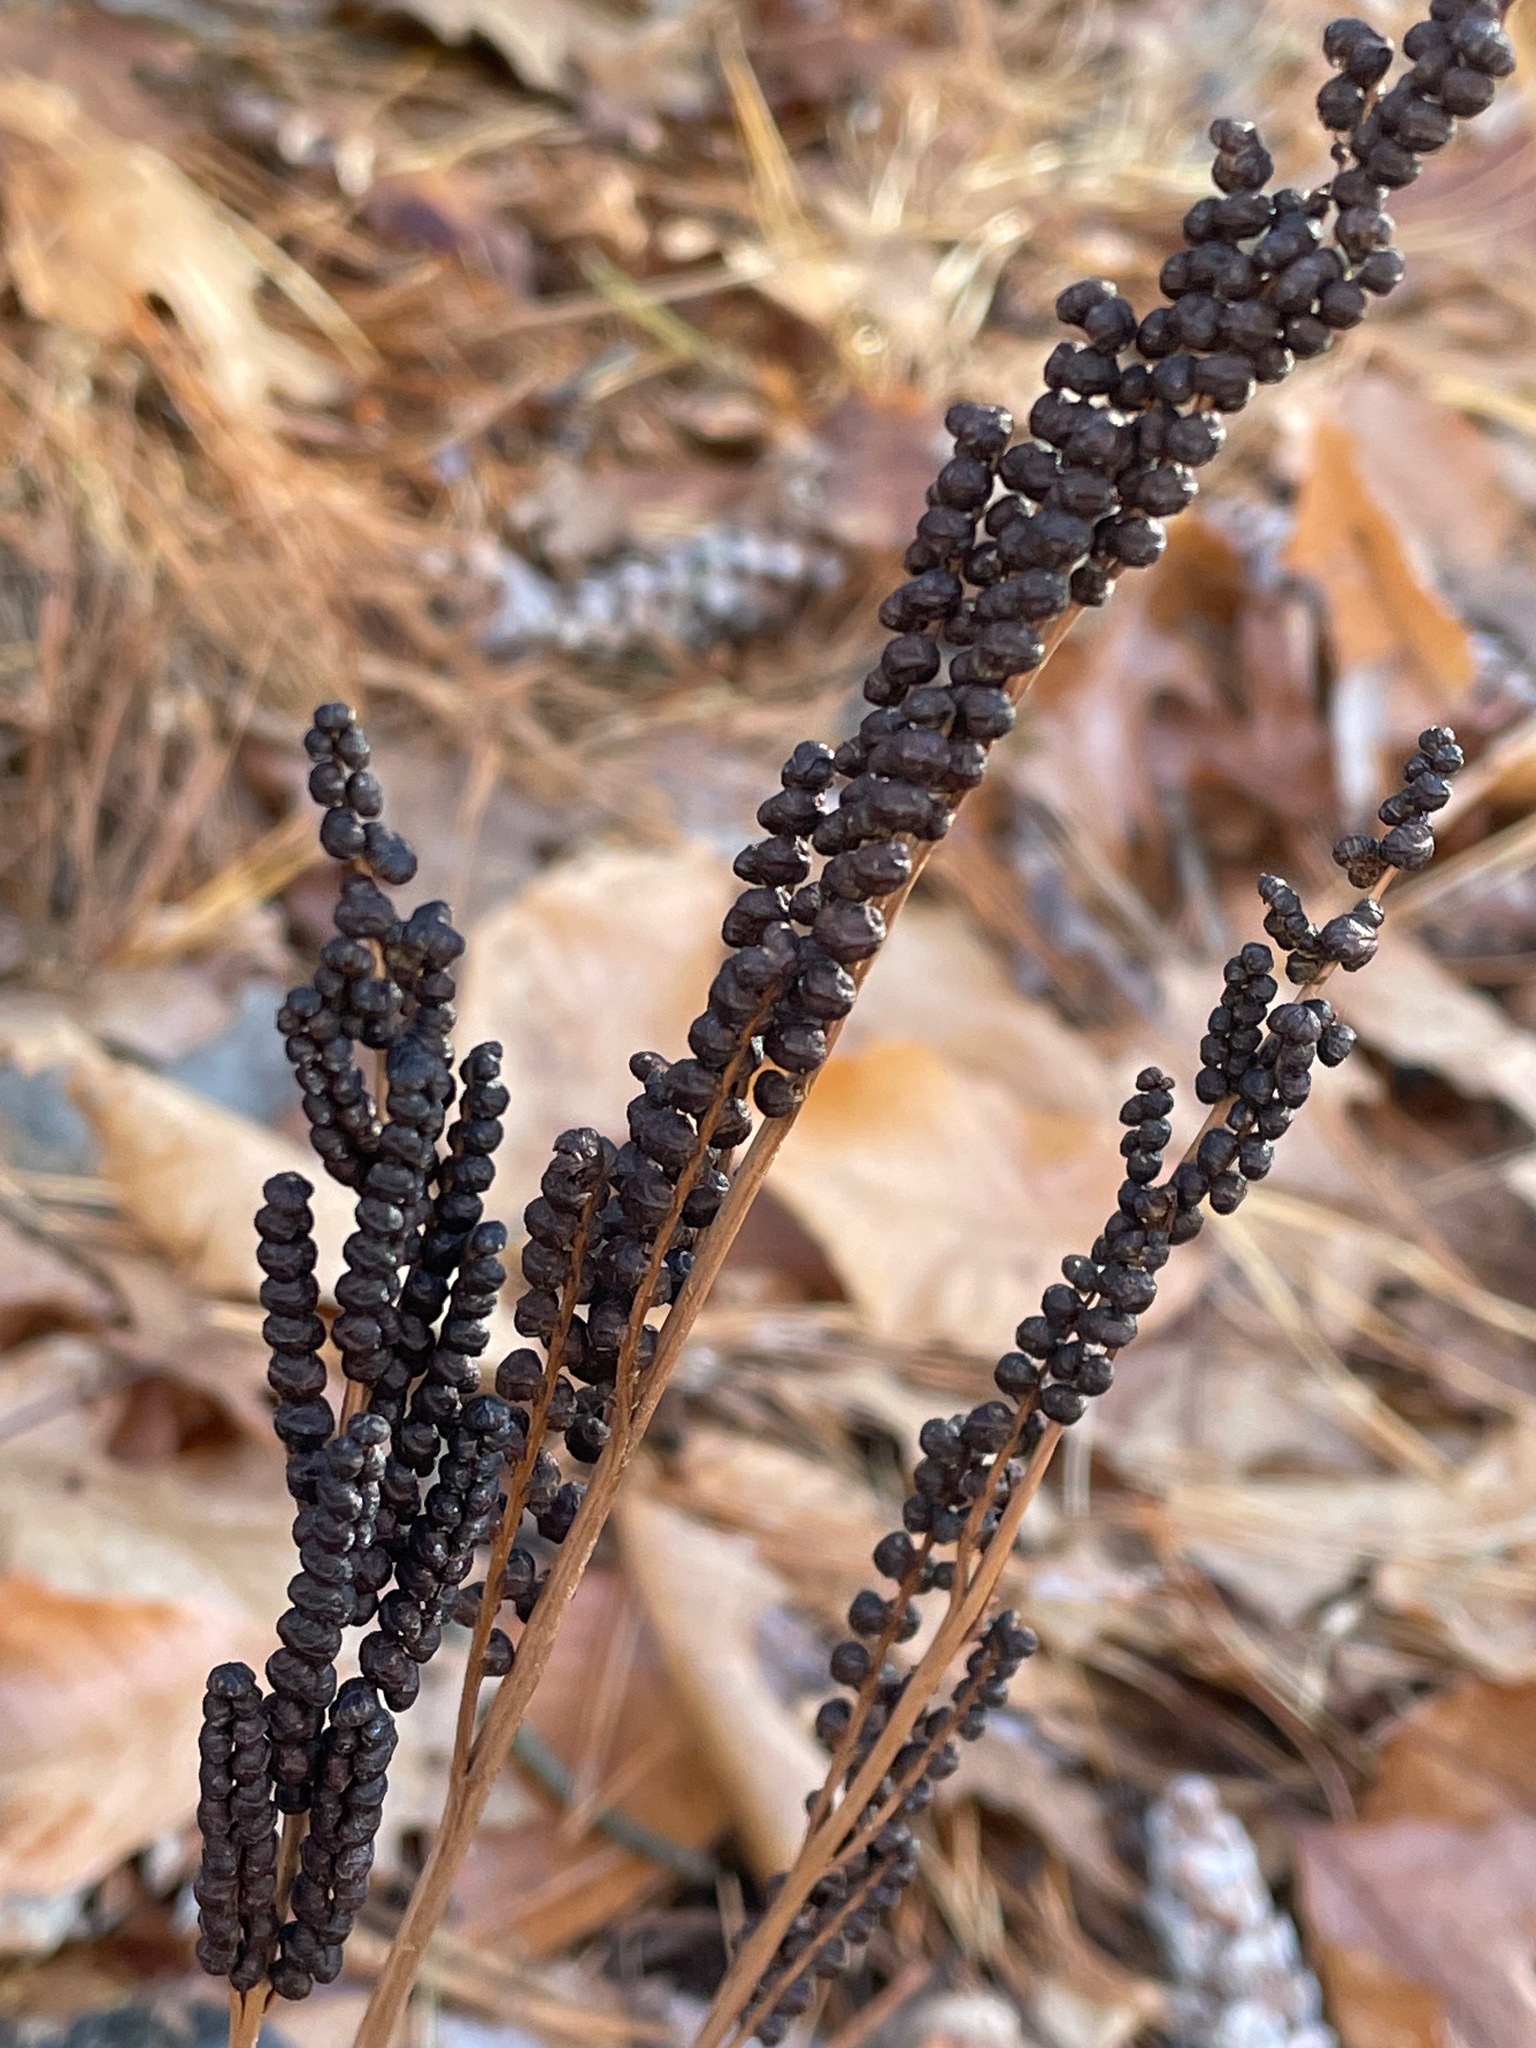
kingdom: Plantae
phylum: Tracheophyta
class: Polypodiopsida
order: Polypodiales
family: Onocleaceae
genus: Onoclea
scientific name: Onoclea sensibilis
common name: Sensitive fern
